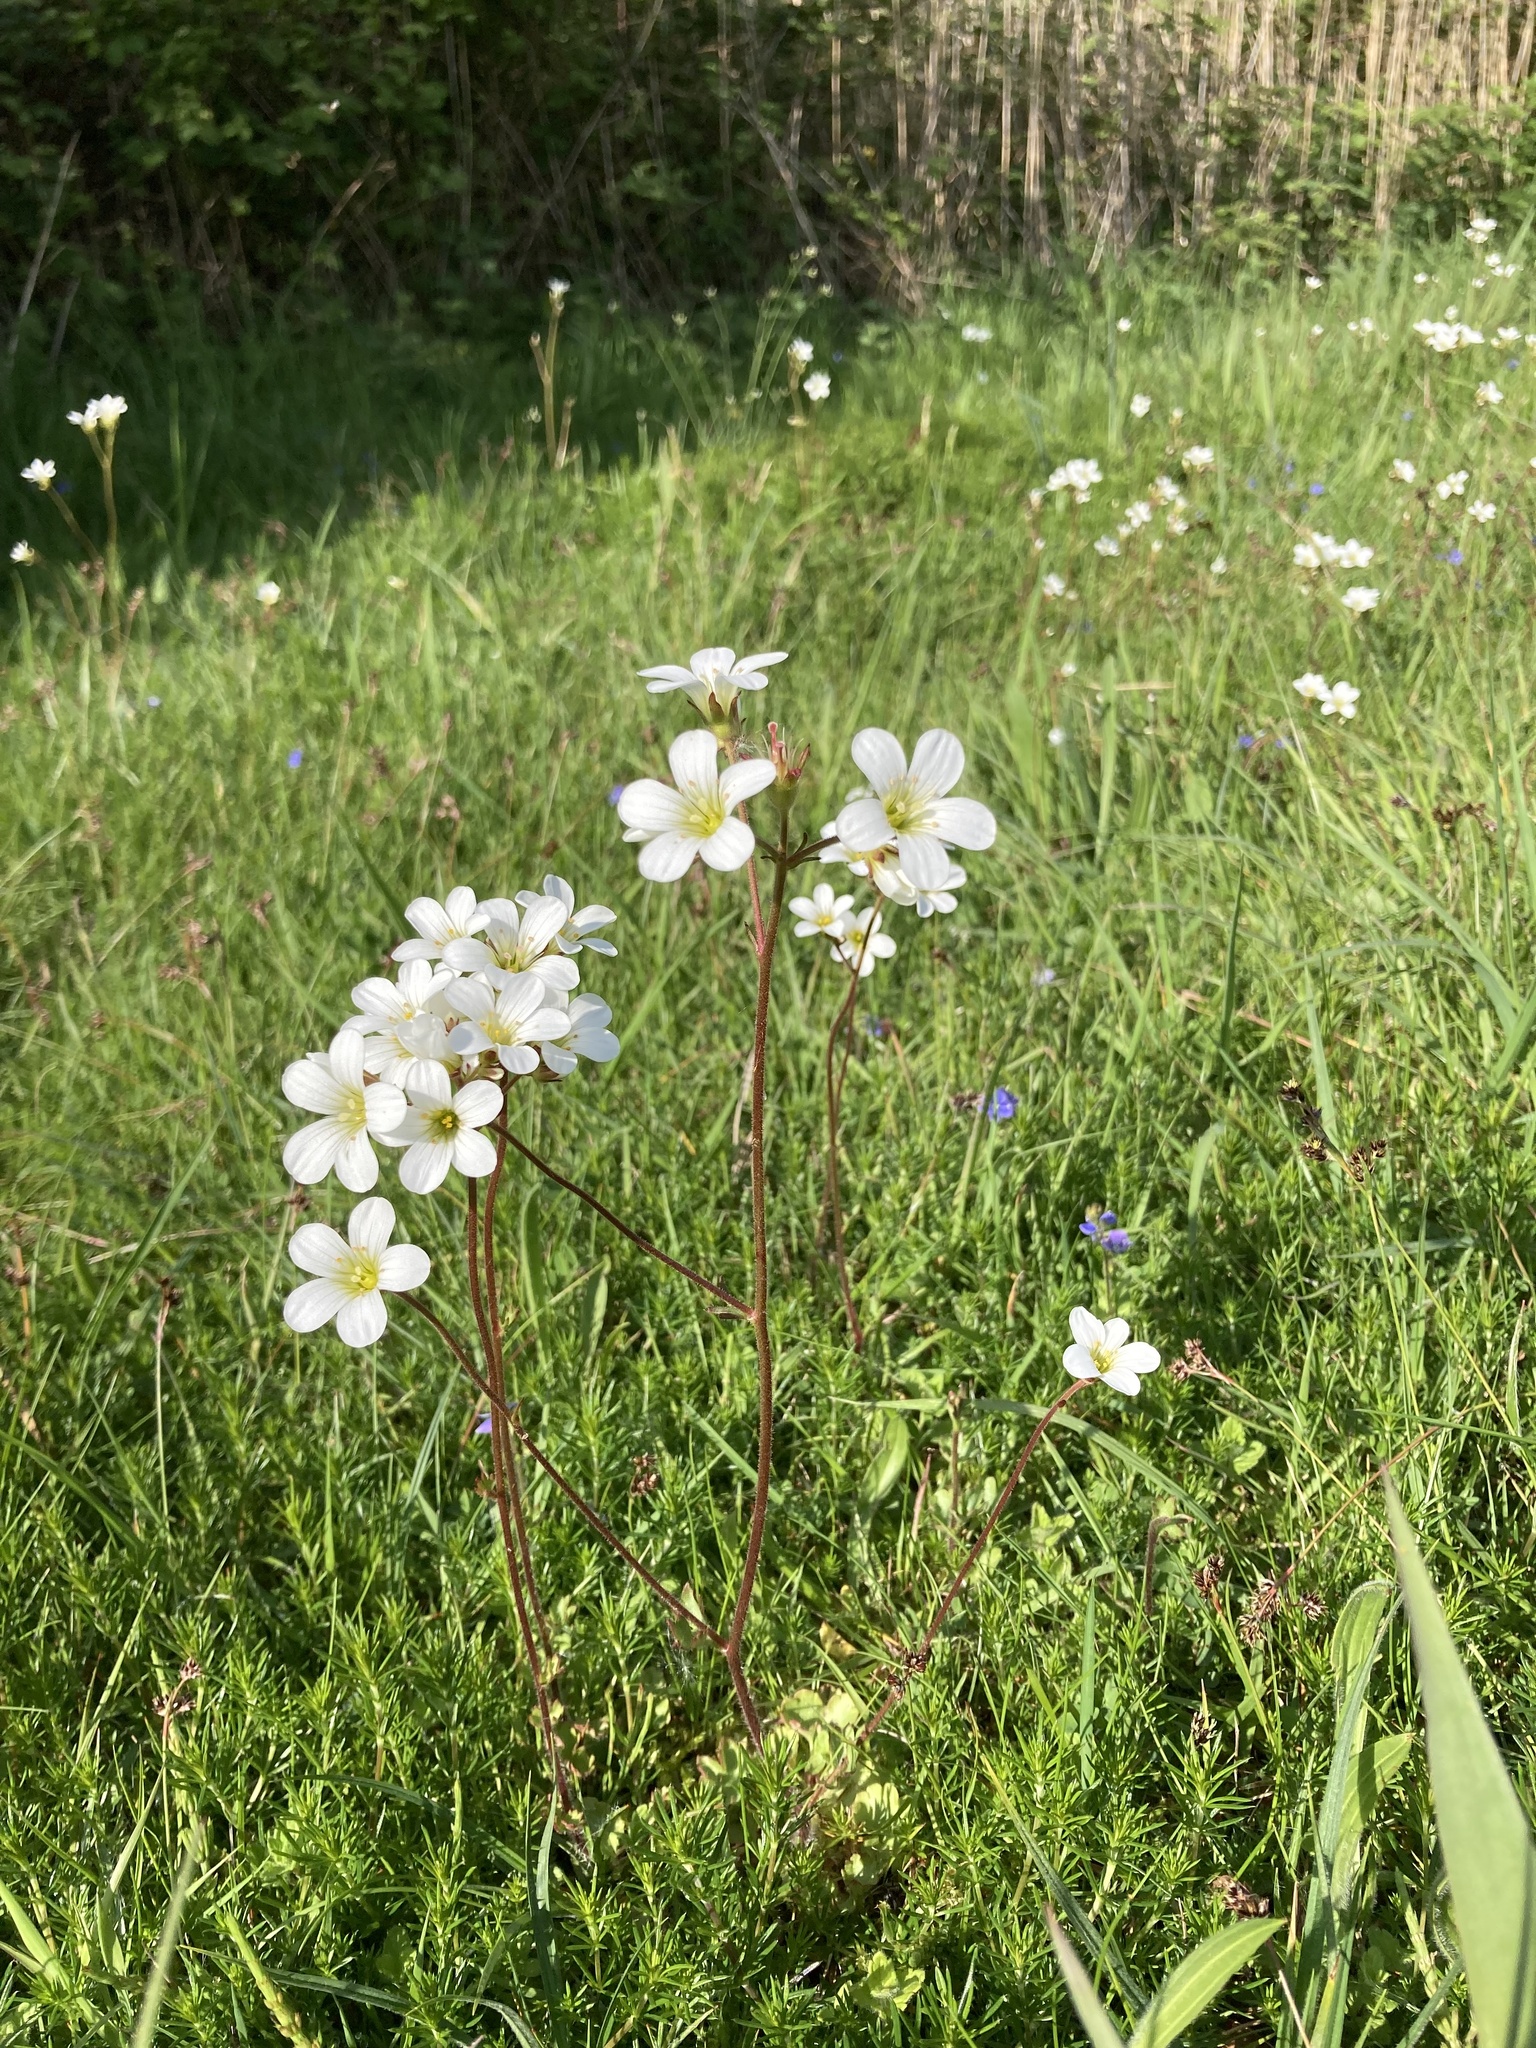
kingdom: Plantae
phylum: Tracheophyta
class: Magnoliopsida
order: Saxifragales
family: Saxifragaceae
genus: Saxifraga
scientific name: Saxifraga granulata
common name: Meadow saxifrage
